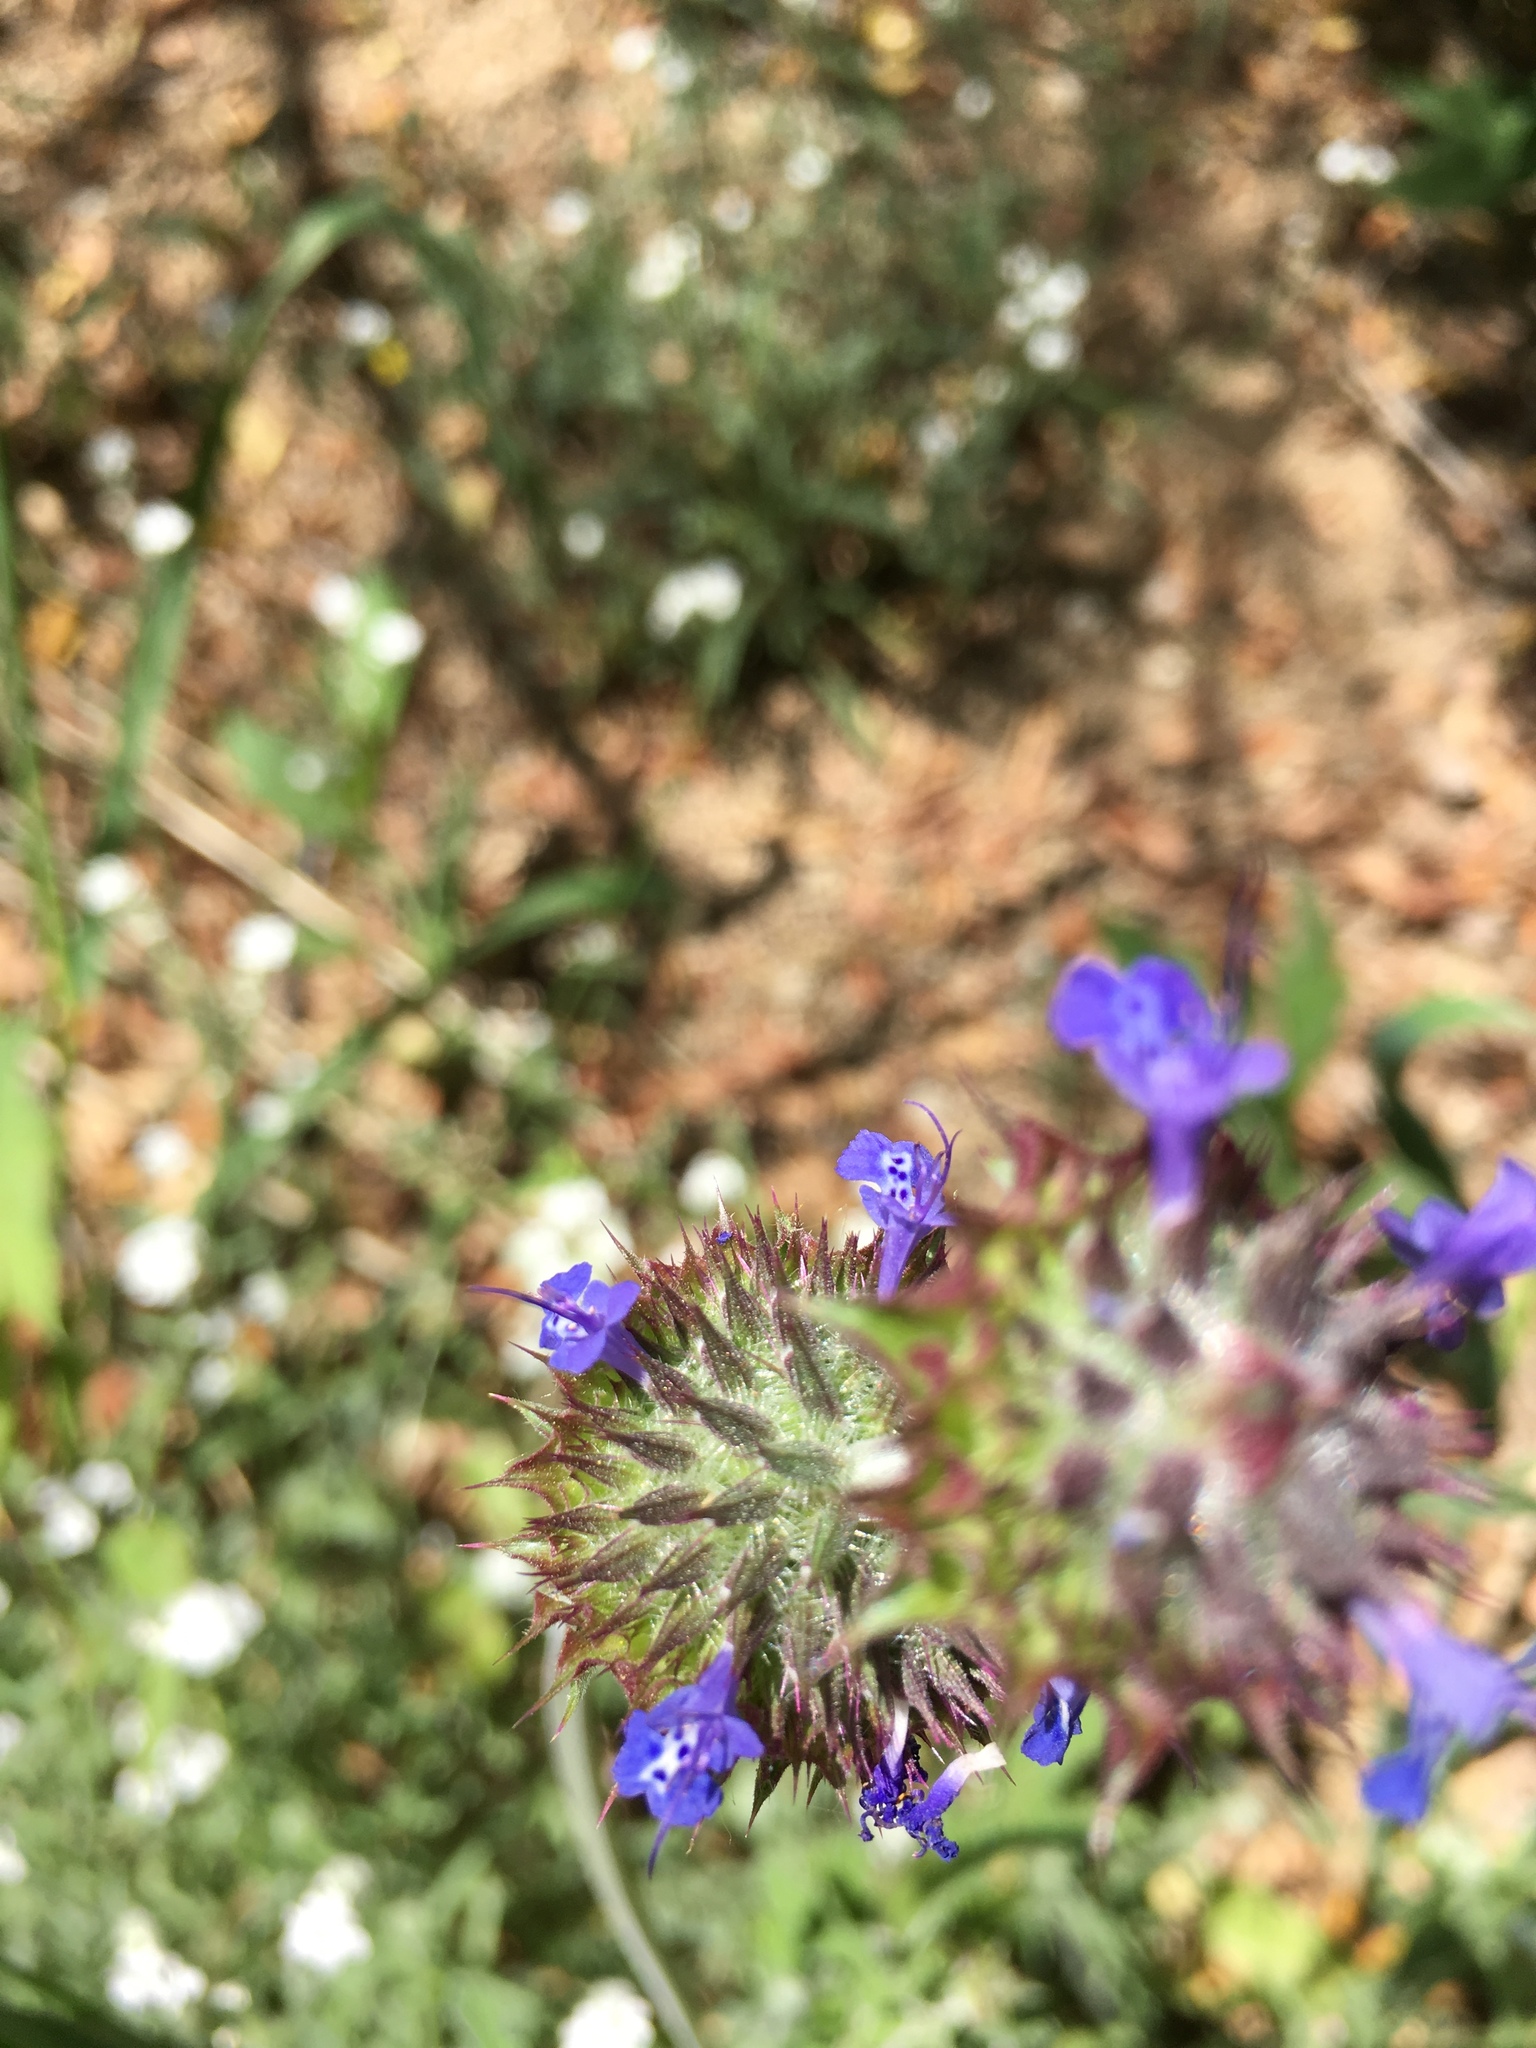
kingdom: Plantae
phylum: Tracheophyta
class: Magnoliopsida
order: Lamiales
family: Lamiaceae
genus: Salvia
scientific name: Salvia columbariae
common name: Chia
